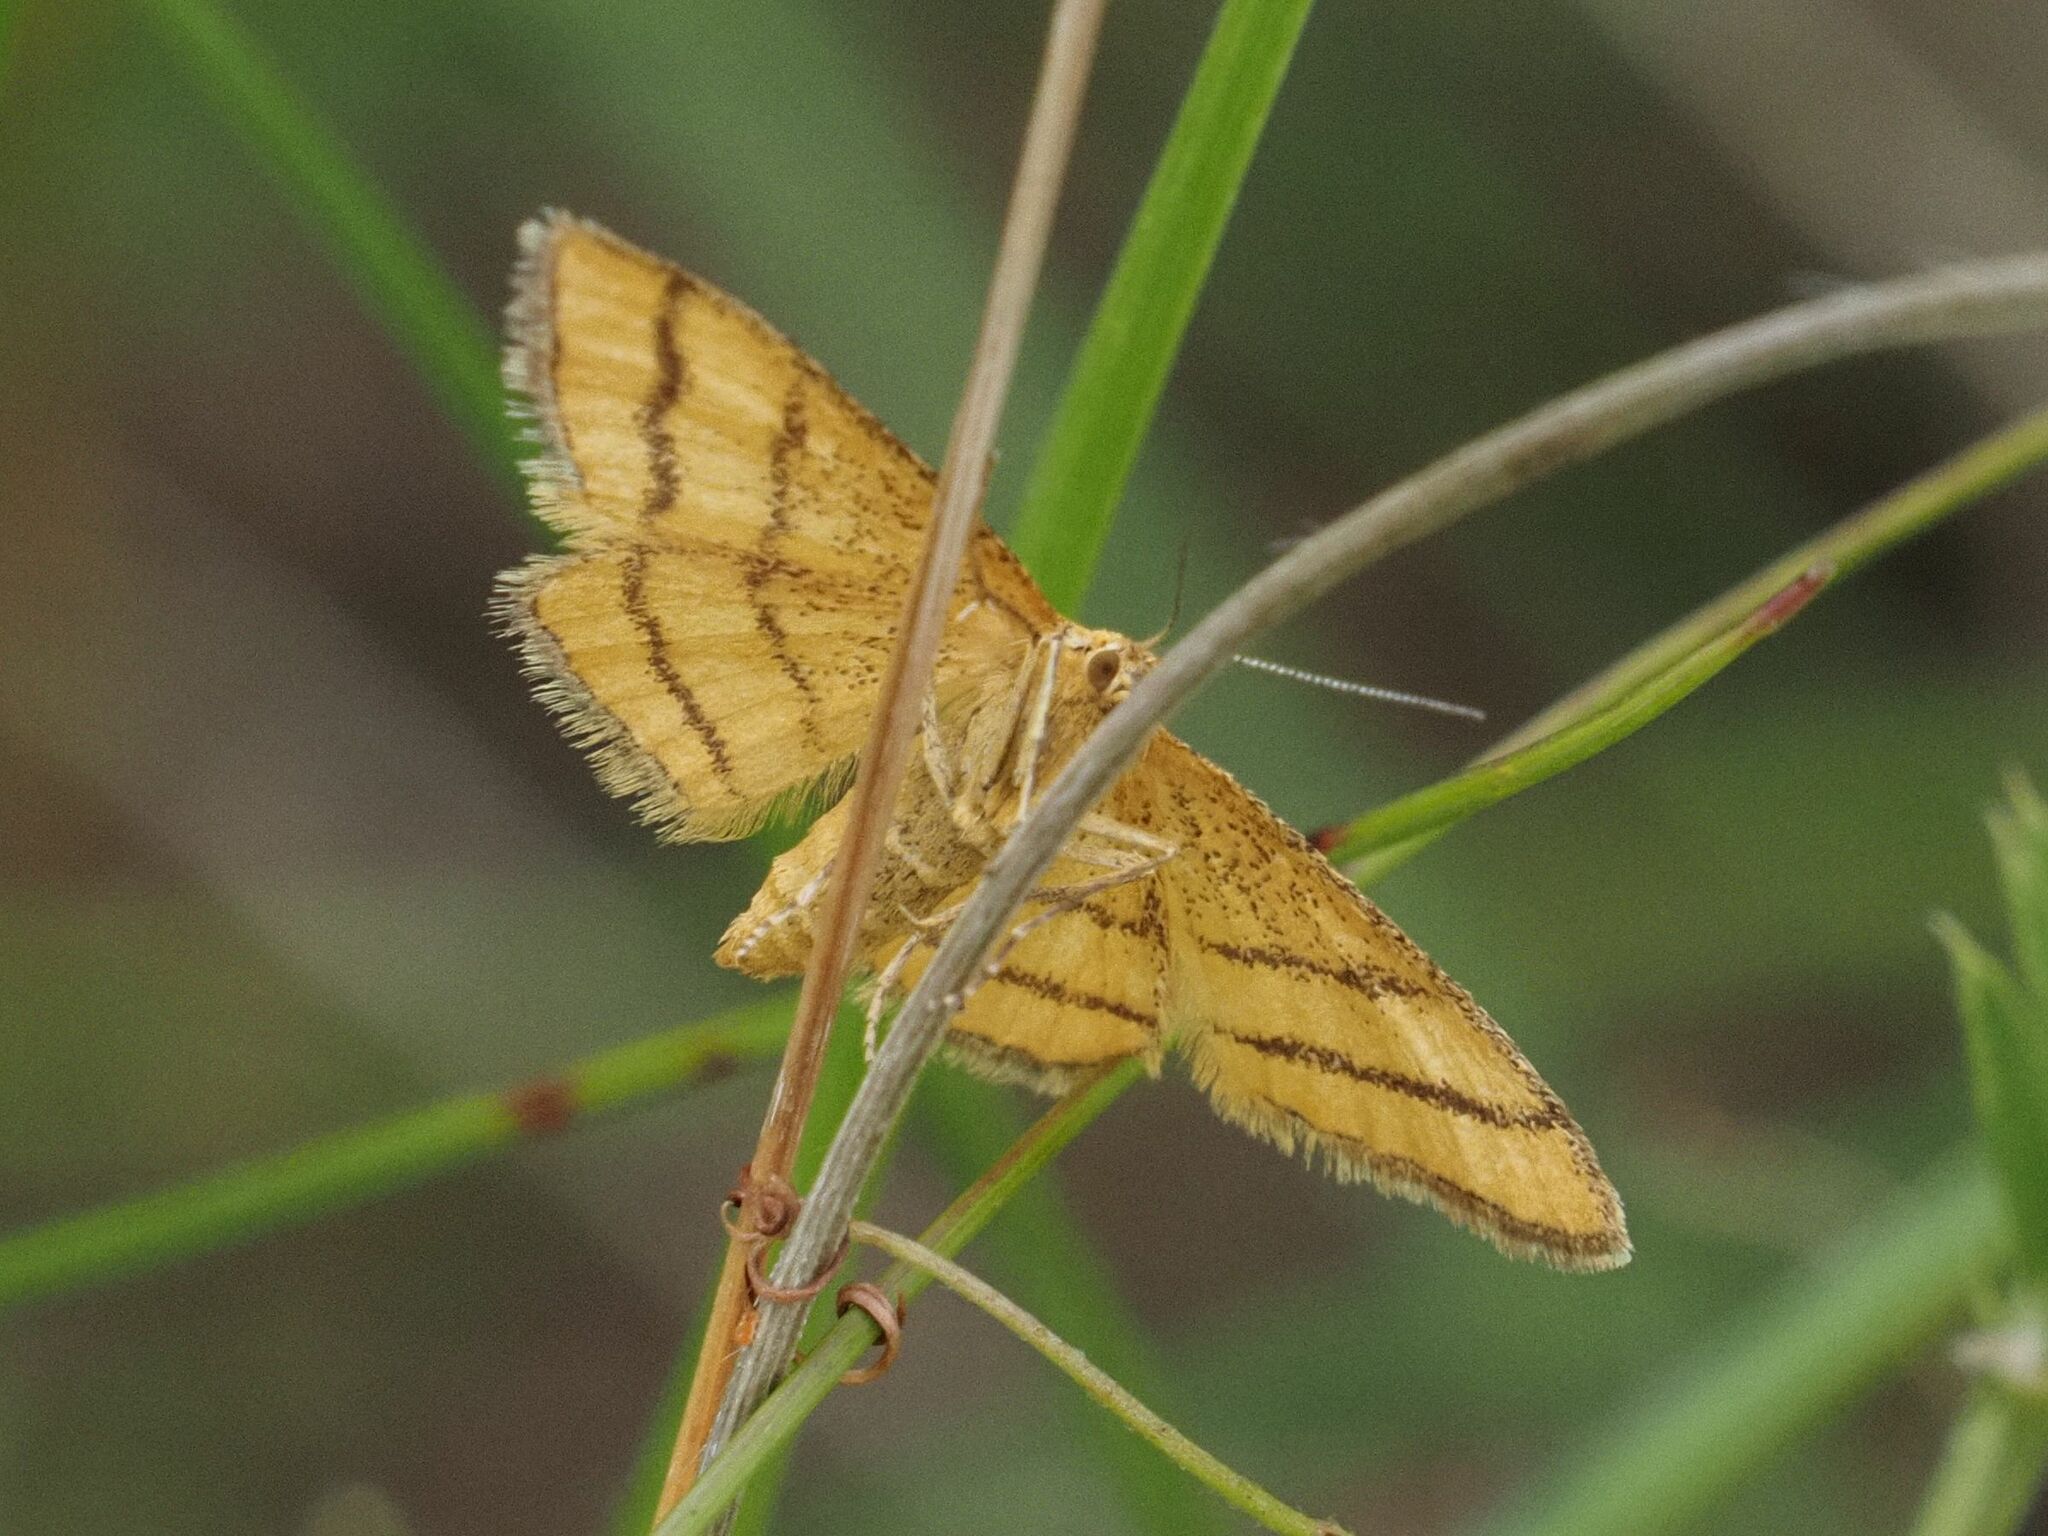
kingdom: Animalia
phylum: Arthropoda
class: Insecta
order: Lepidoptera
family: Geometridae
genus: Idaea
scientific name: Idaea aureolaria
